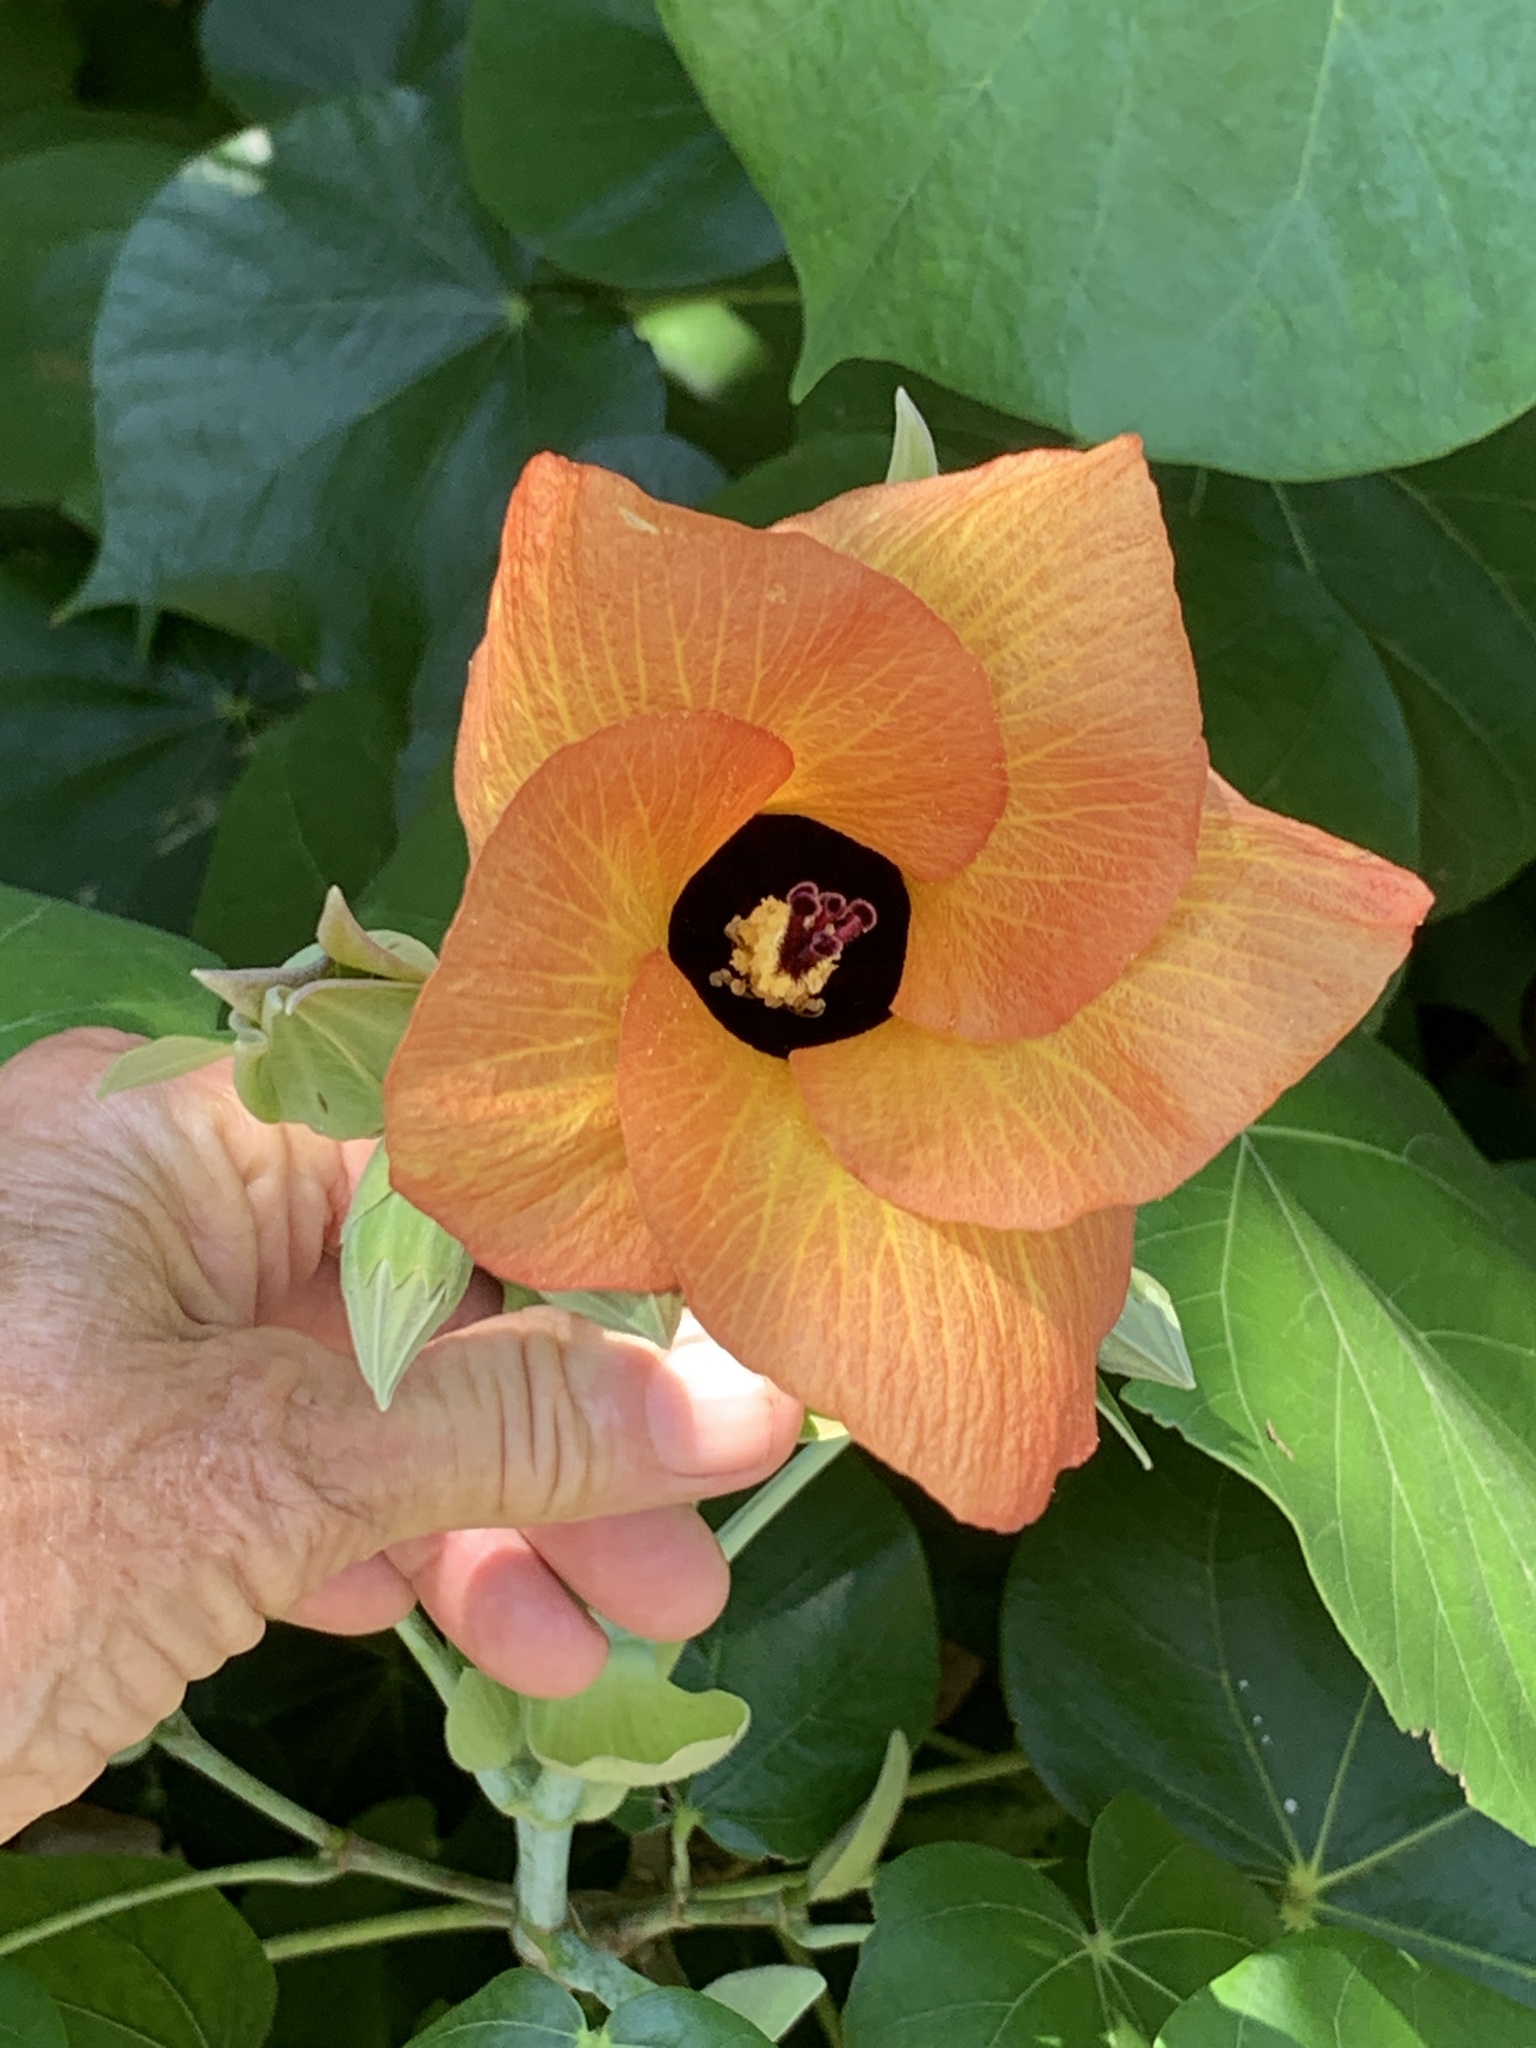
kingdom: Plantae
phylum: Tracheophyta
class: Magnoliopsida
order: Malvales
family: Malvaceae
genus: Talipariti
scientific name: Talipariti tiliaceum
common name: Sea hibiscus
